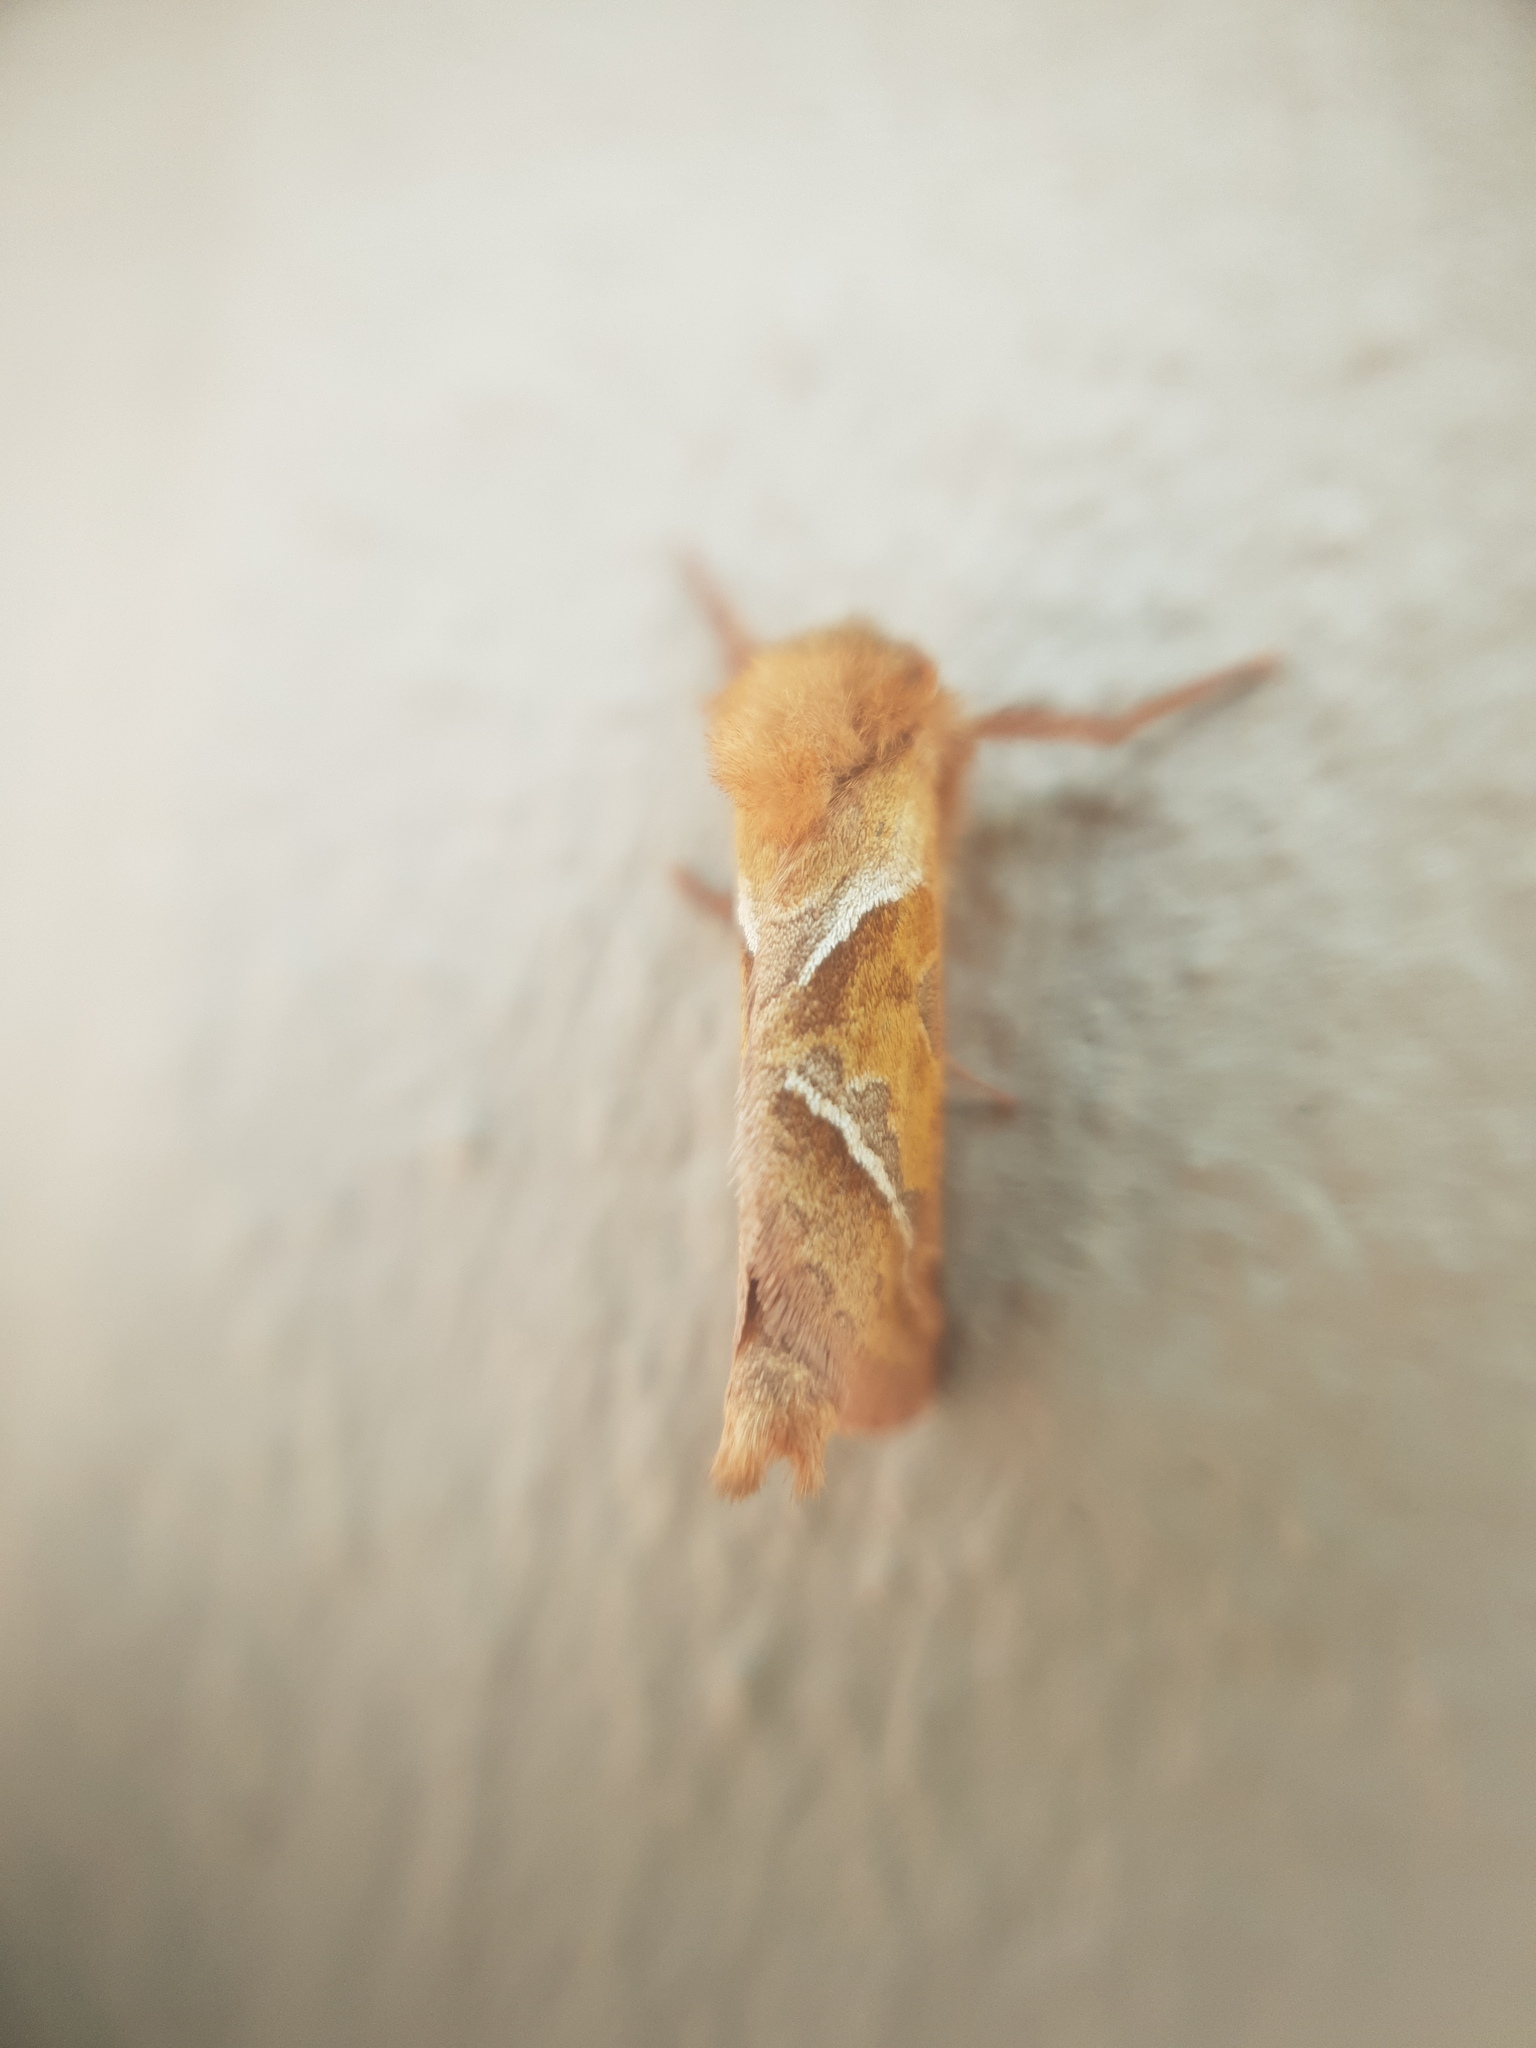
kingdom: Animalia
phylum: Arthropoda
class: Insecta
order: Lepidoptera
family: Hepialidae
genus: Triodia
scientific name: Triodia sylvina
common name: Orange swift
